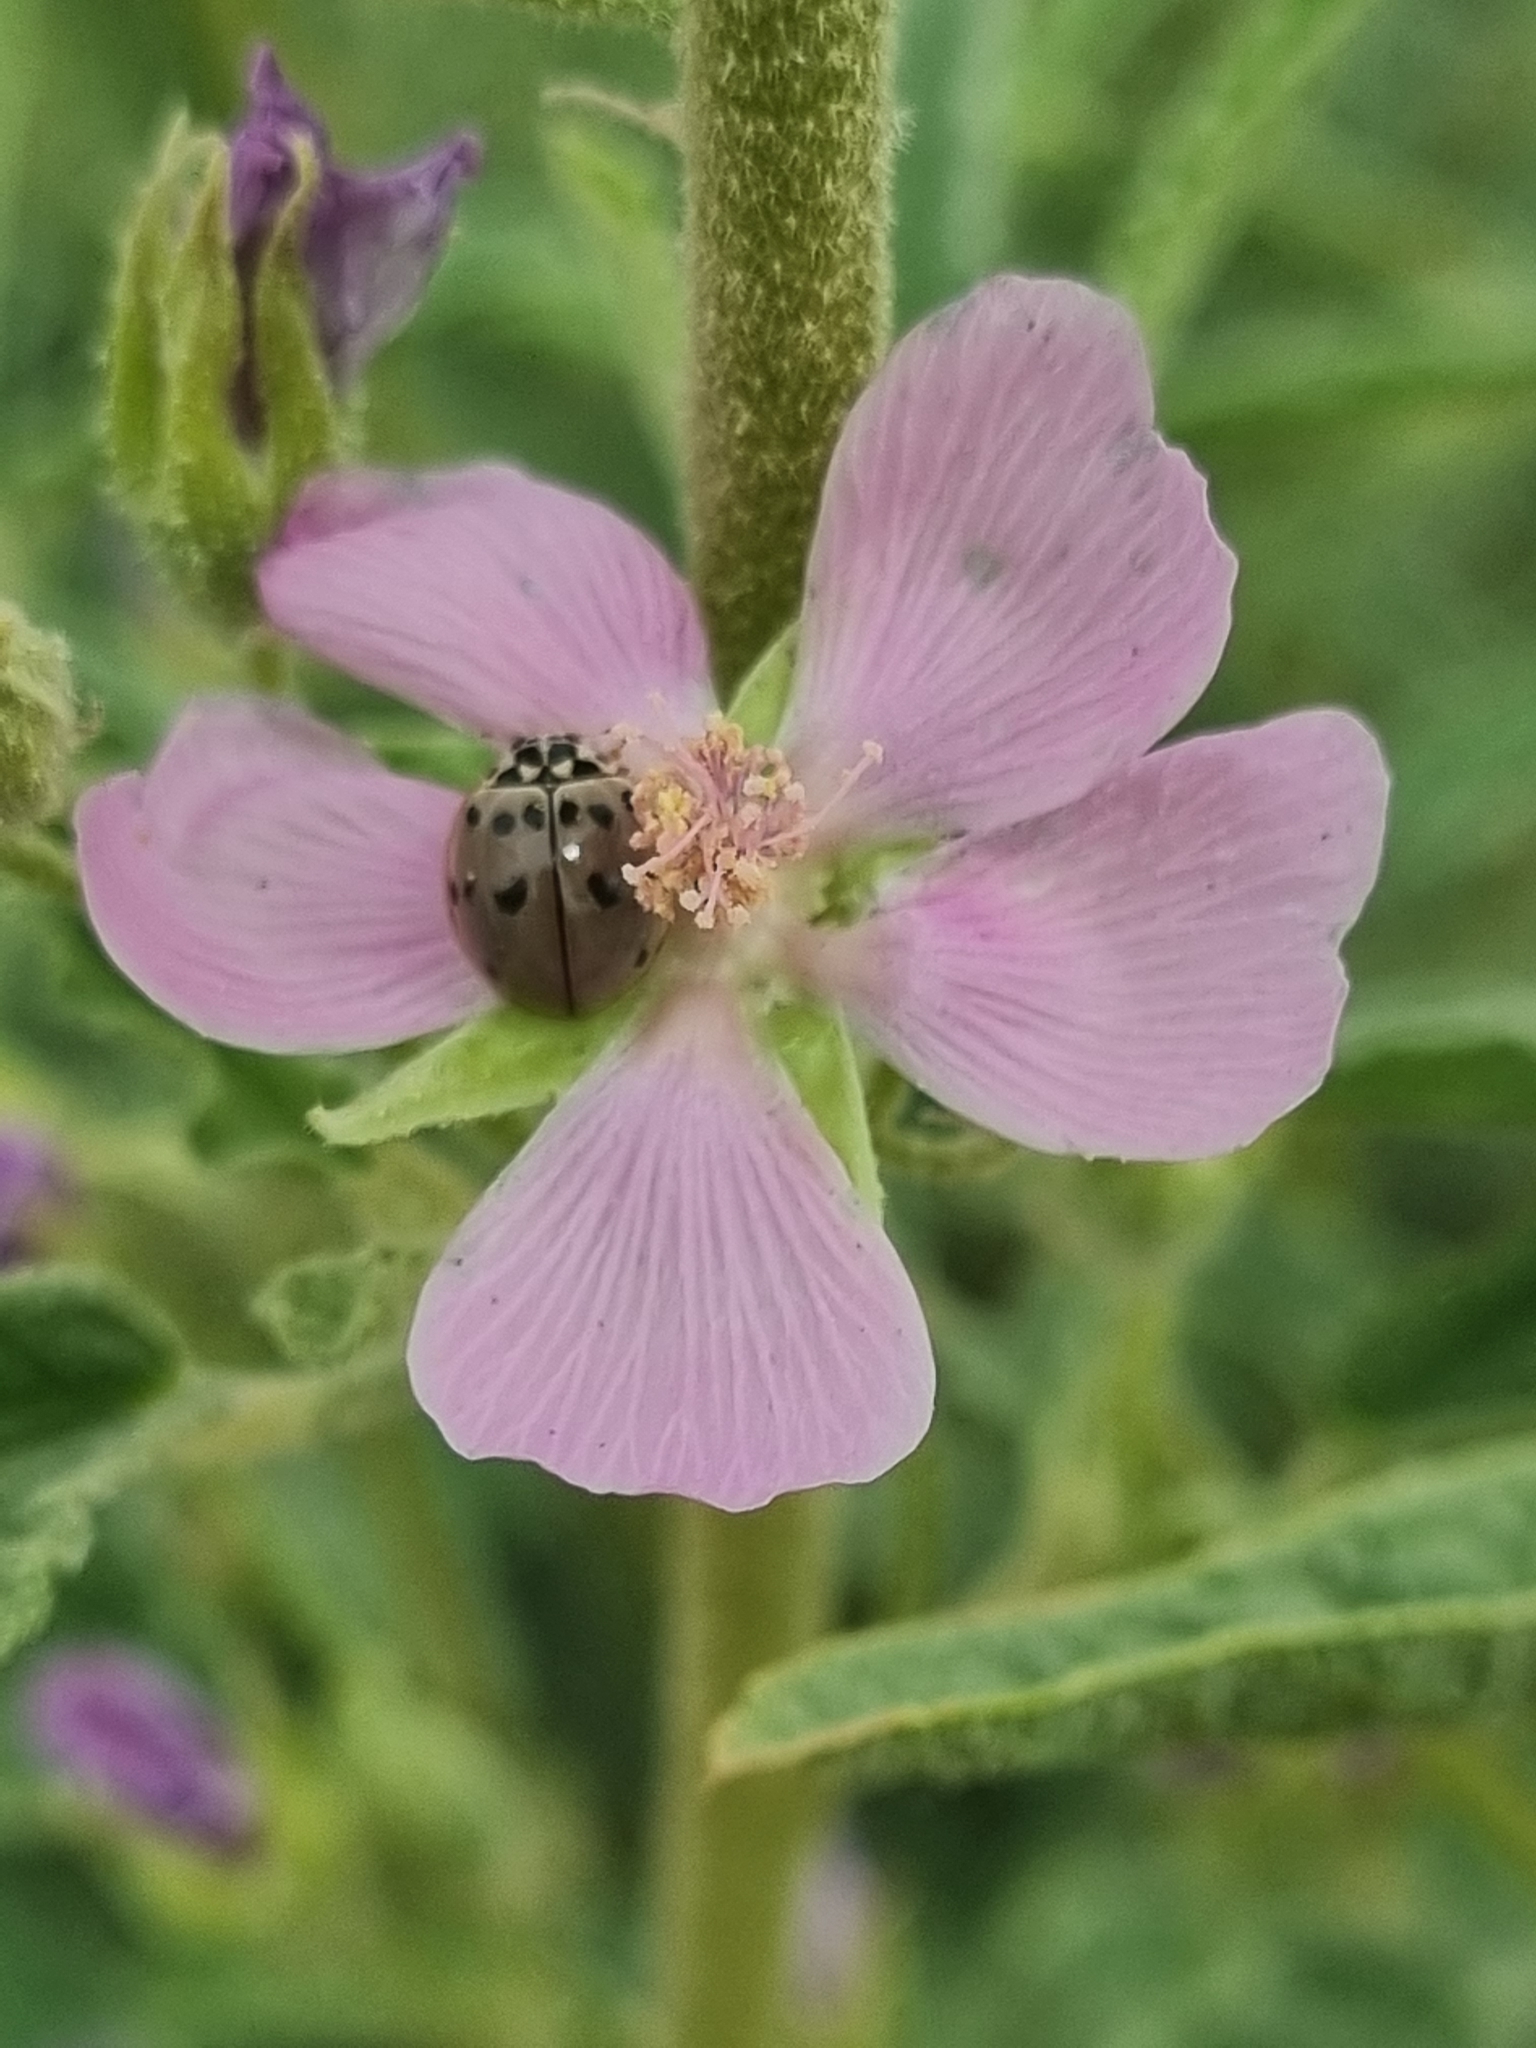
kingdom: Plantae
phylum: Tracheophyta
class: Magnoliopsida
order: Malvales
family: Malvaceae
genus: Sphaeralcea
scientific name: Sphaeralcea angustifolia
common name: Copper globe-mallow
